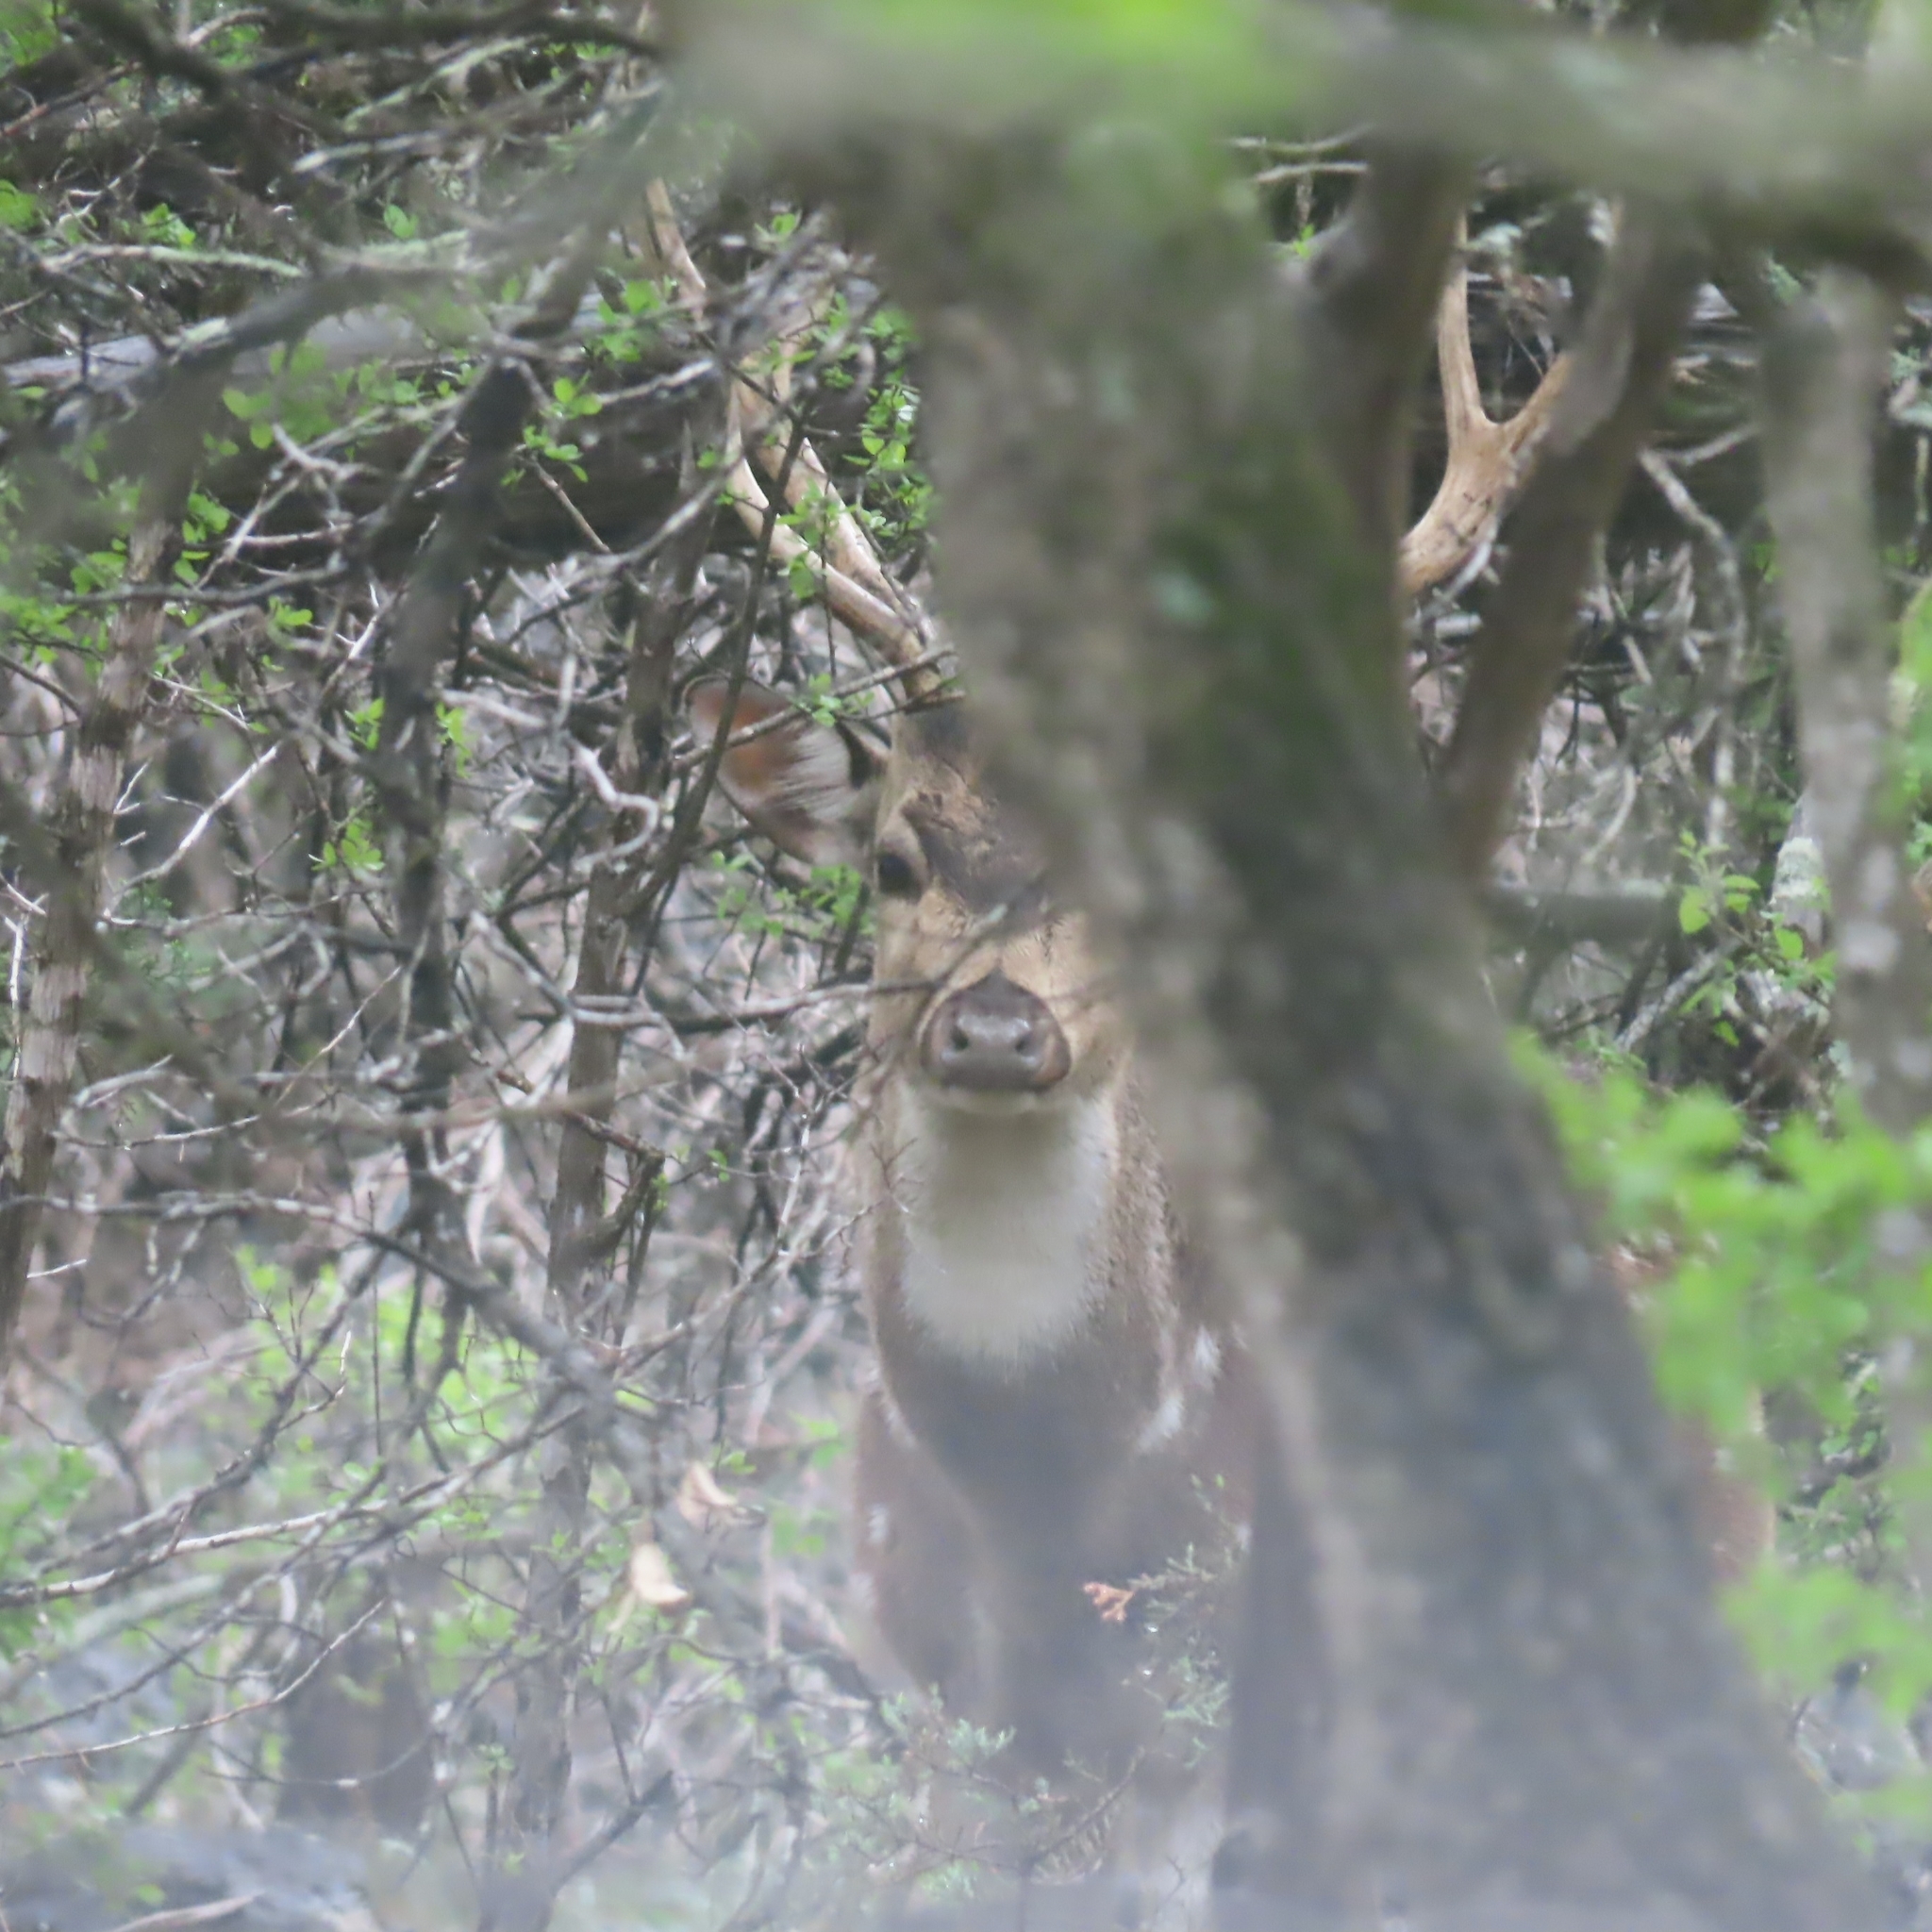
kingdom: Animalia
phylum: Chordata
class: Mammalia
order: Artiodactyla
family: Cervidae
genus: Axis
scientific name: Axis axis
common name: Chital
